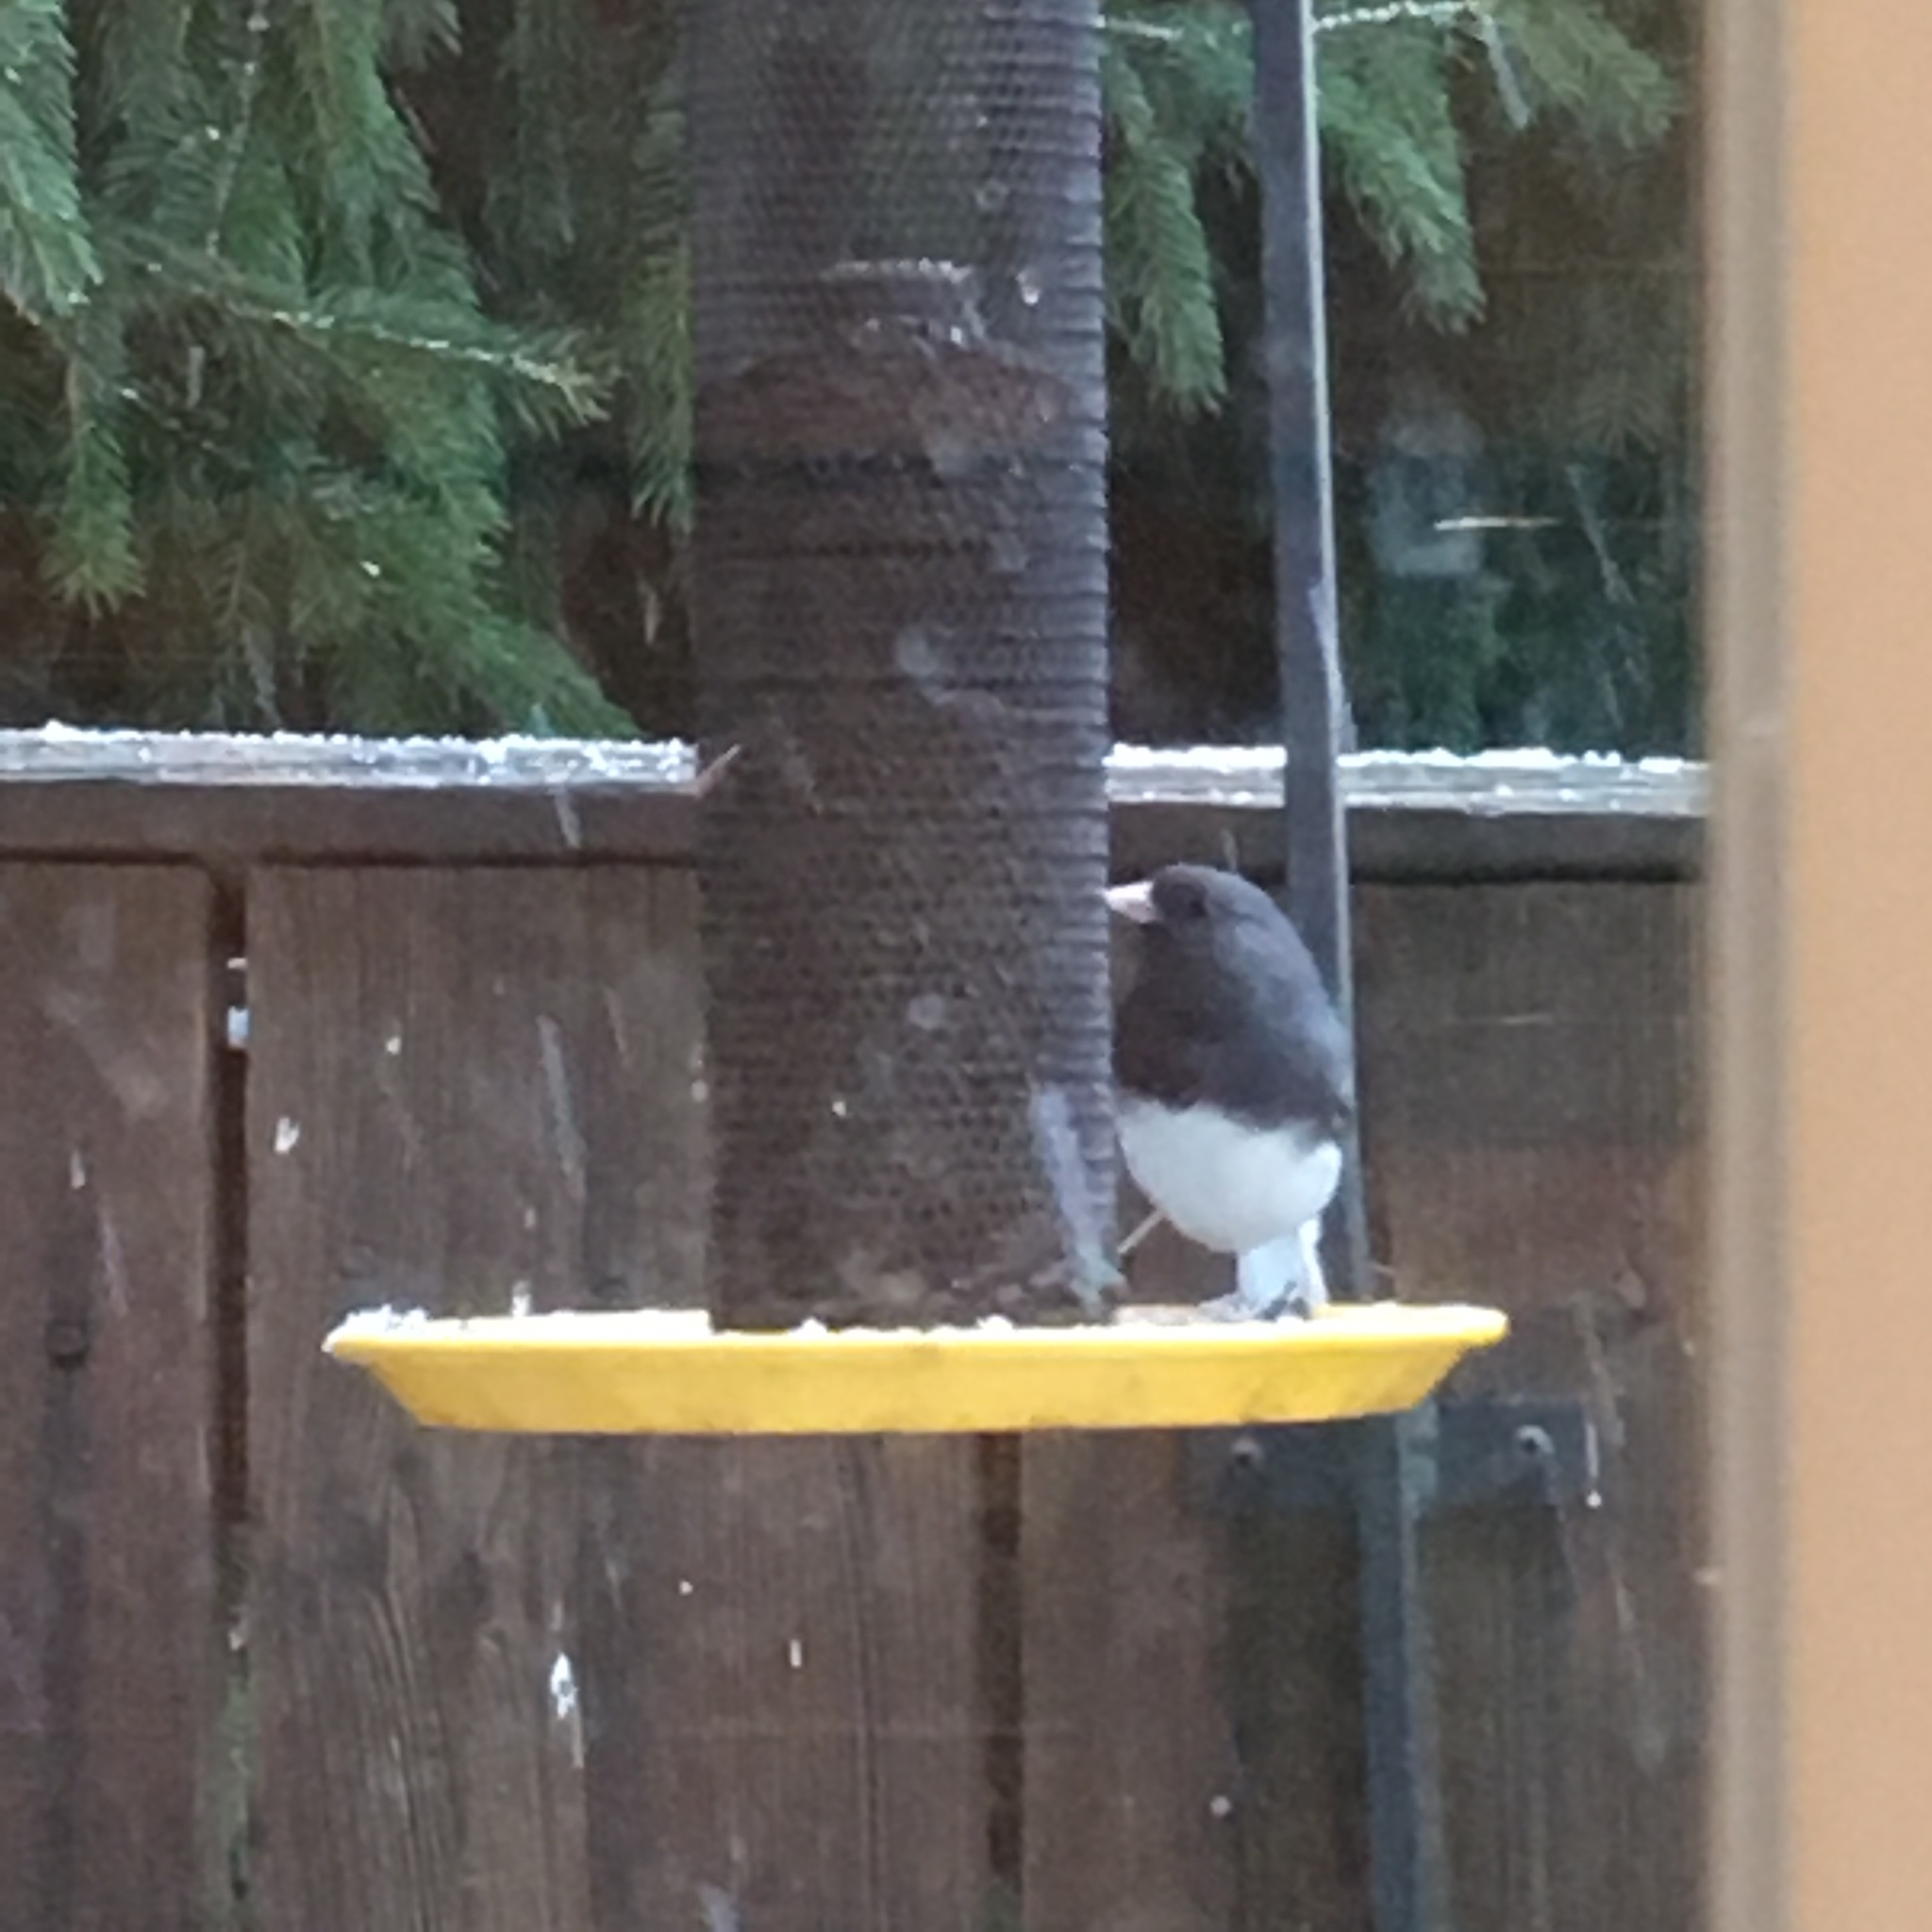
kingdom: Animalia
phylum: Chordata
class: Aves
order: Passeriformes
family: Passerellidae
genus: Junco
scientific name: Junco hyemalis
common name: Dark-eyed junco
